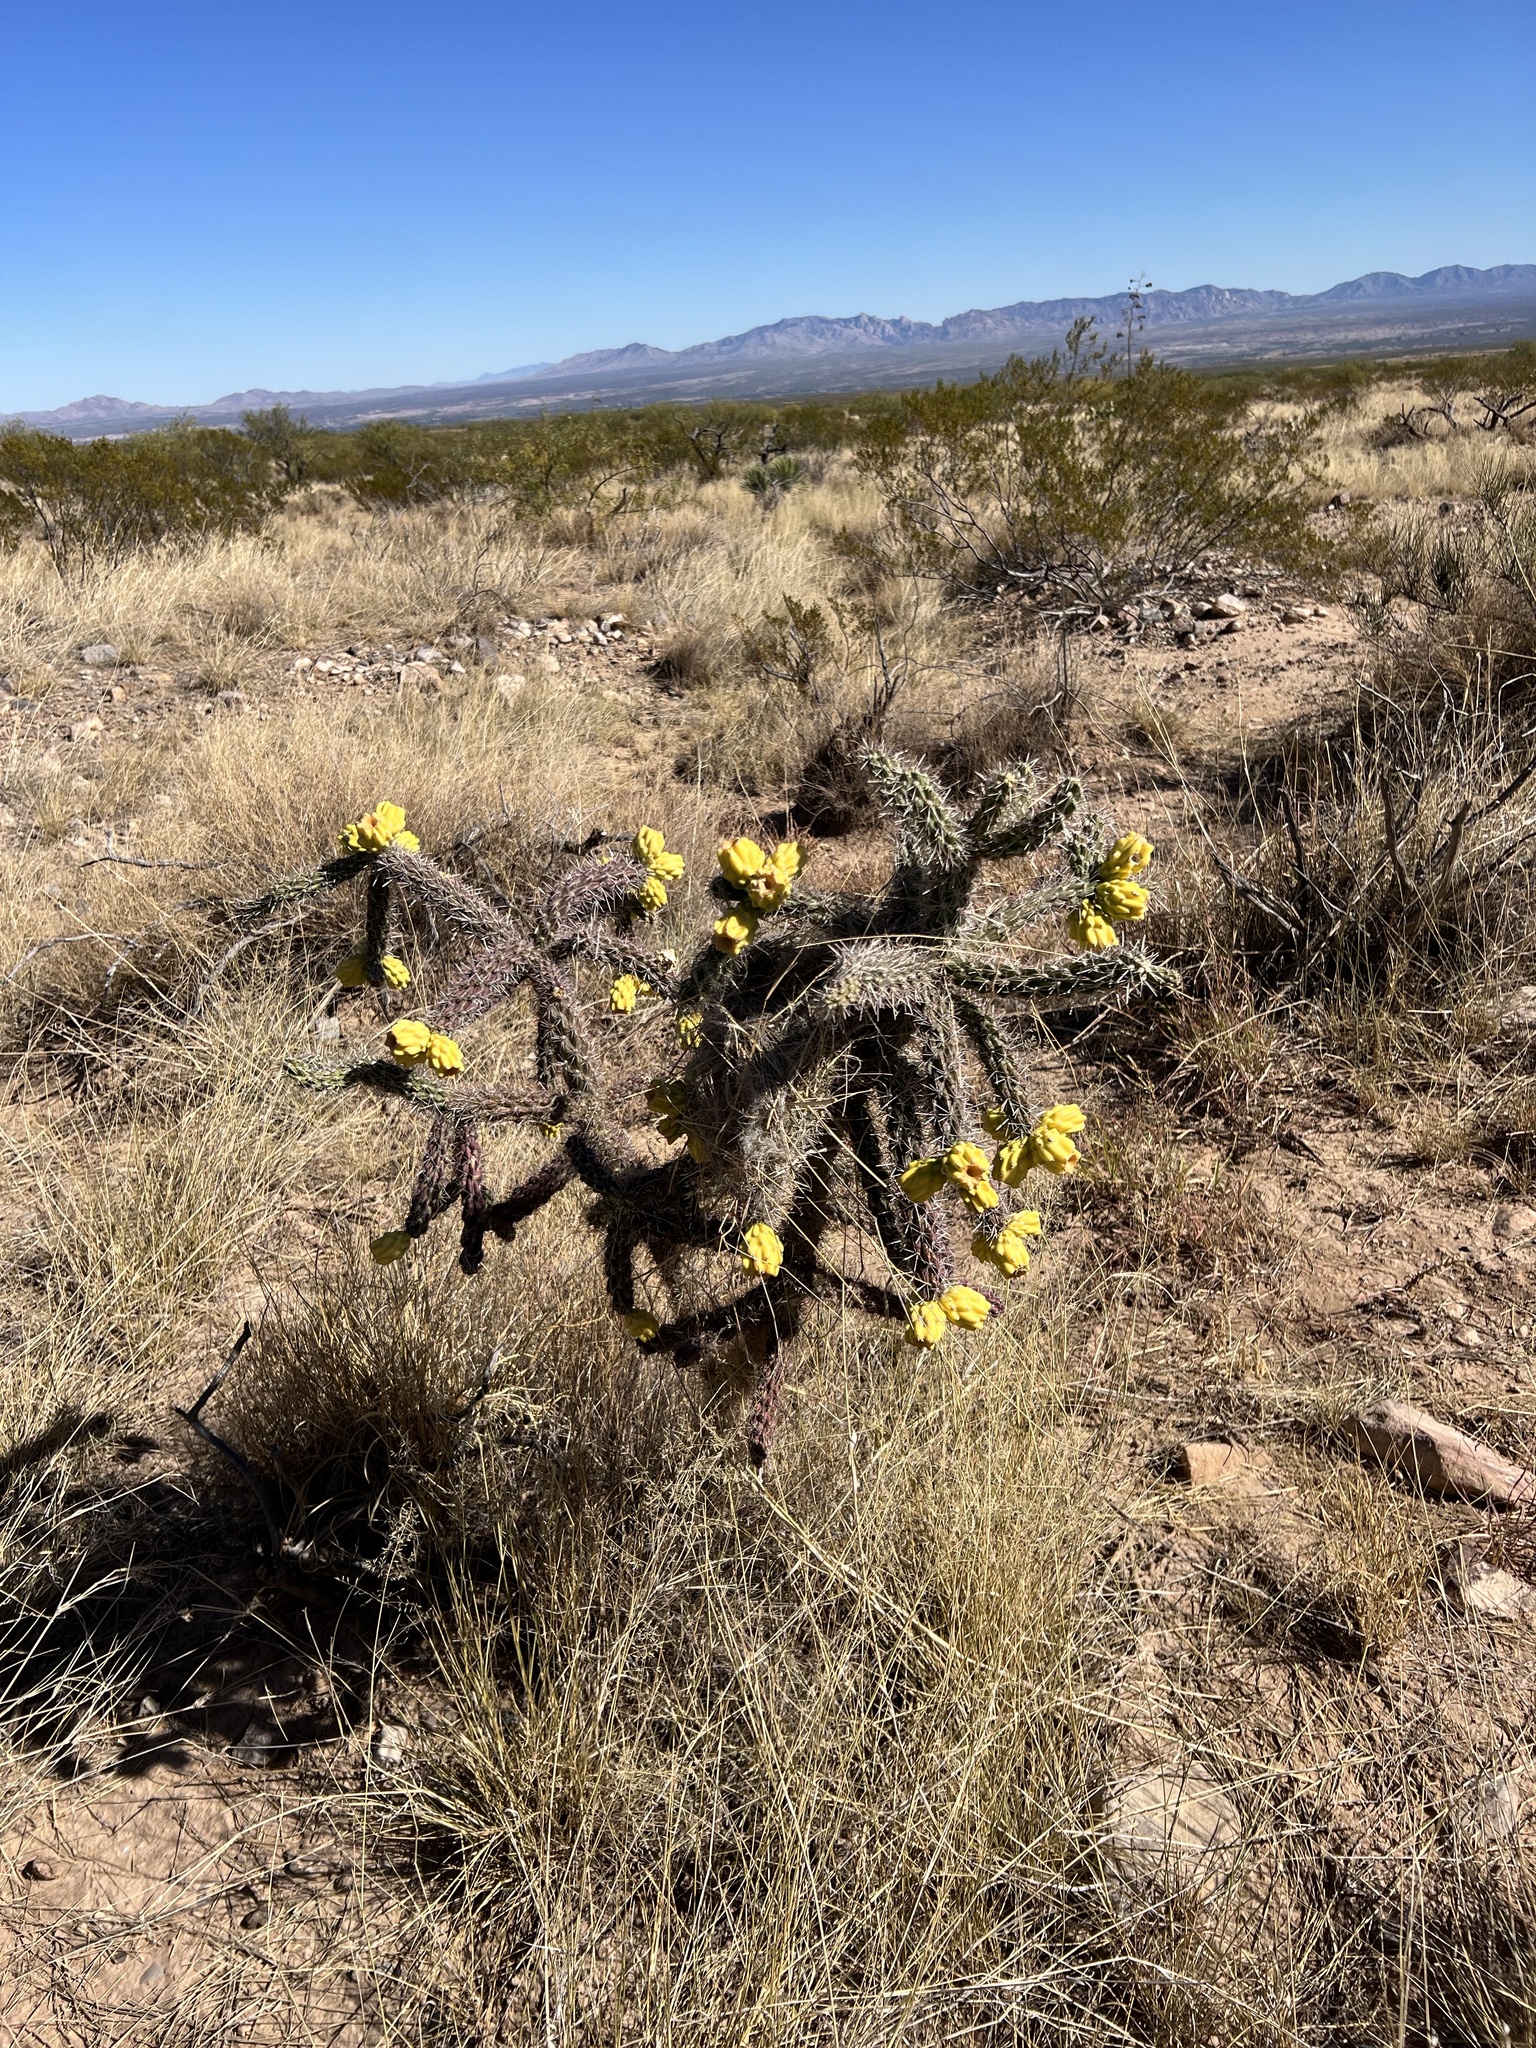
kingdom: Plantae
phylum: Tracheophyta
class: Magnoliopsida
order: Caryophyllales
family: Cactaceae
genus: Cylindropuntia
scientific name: Cylindropuntia imbricata
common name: Candelabrum cactus
